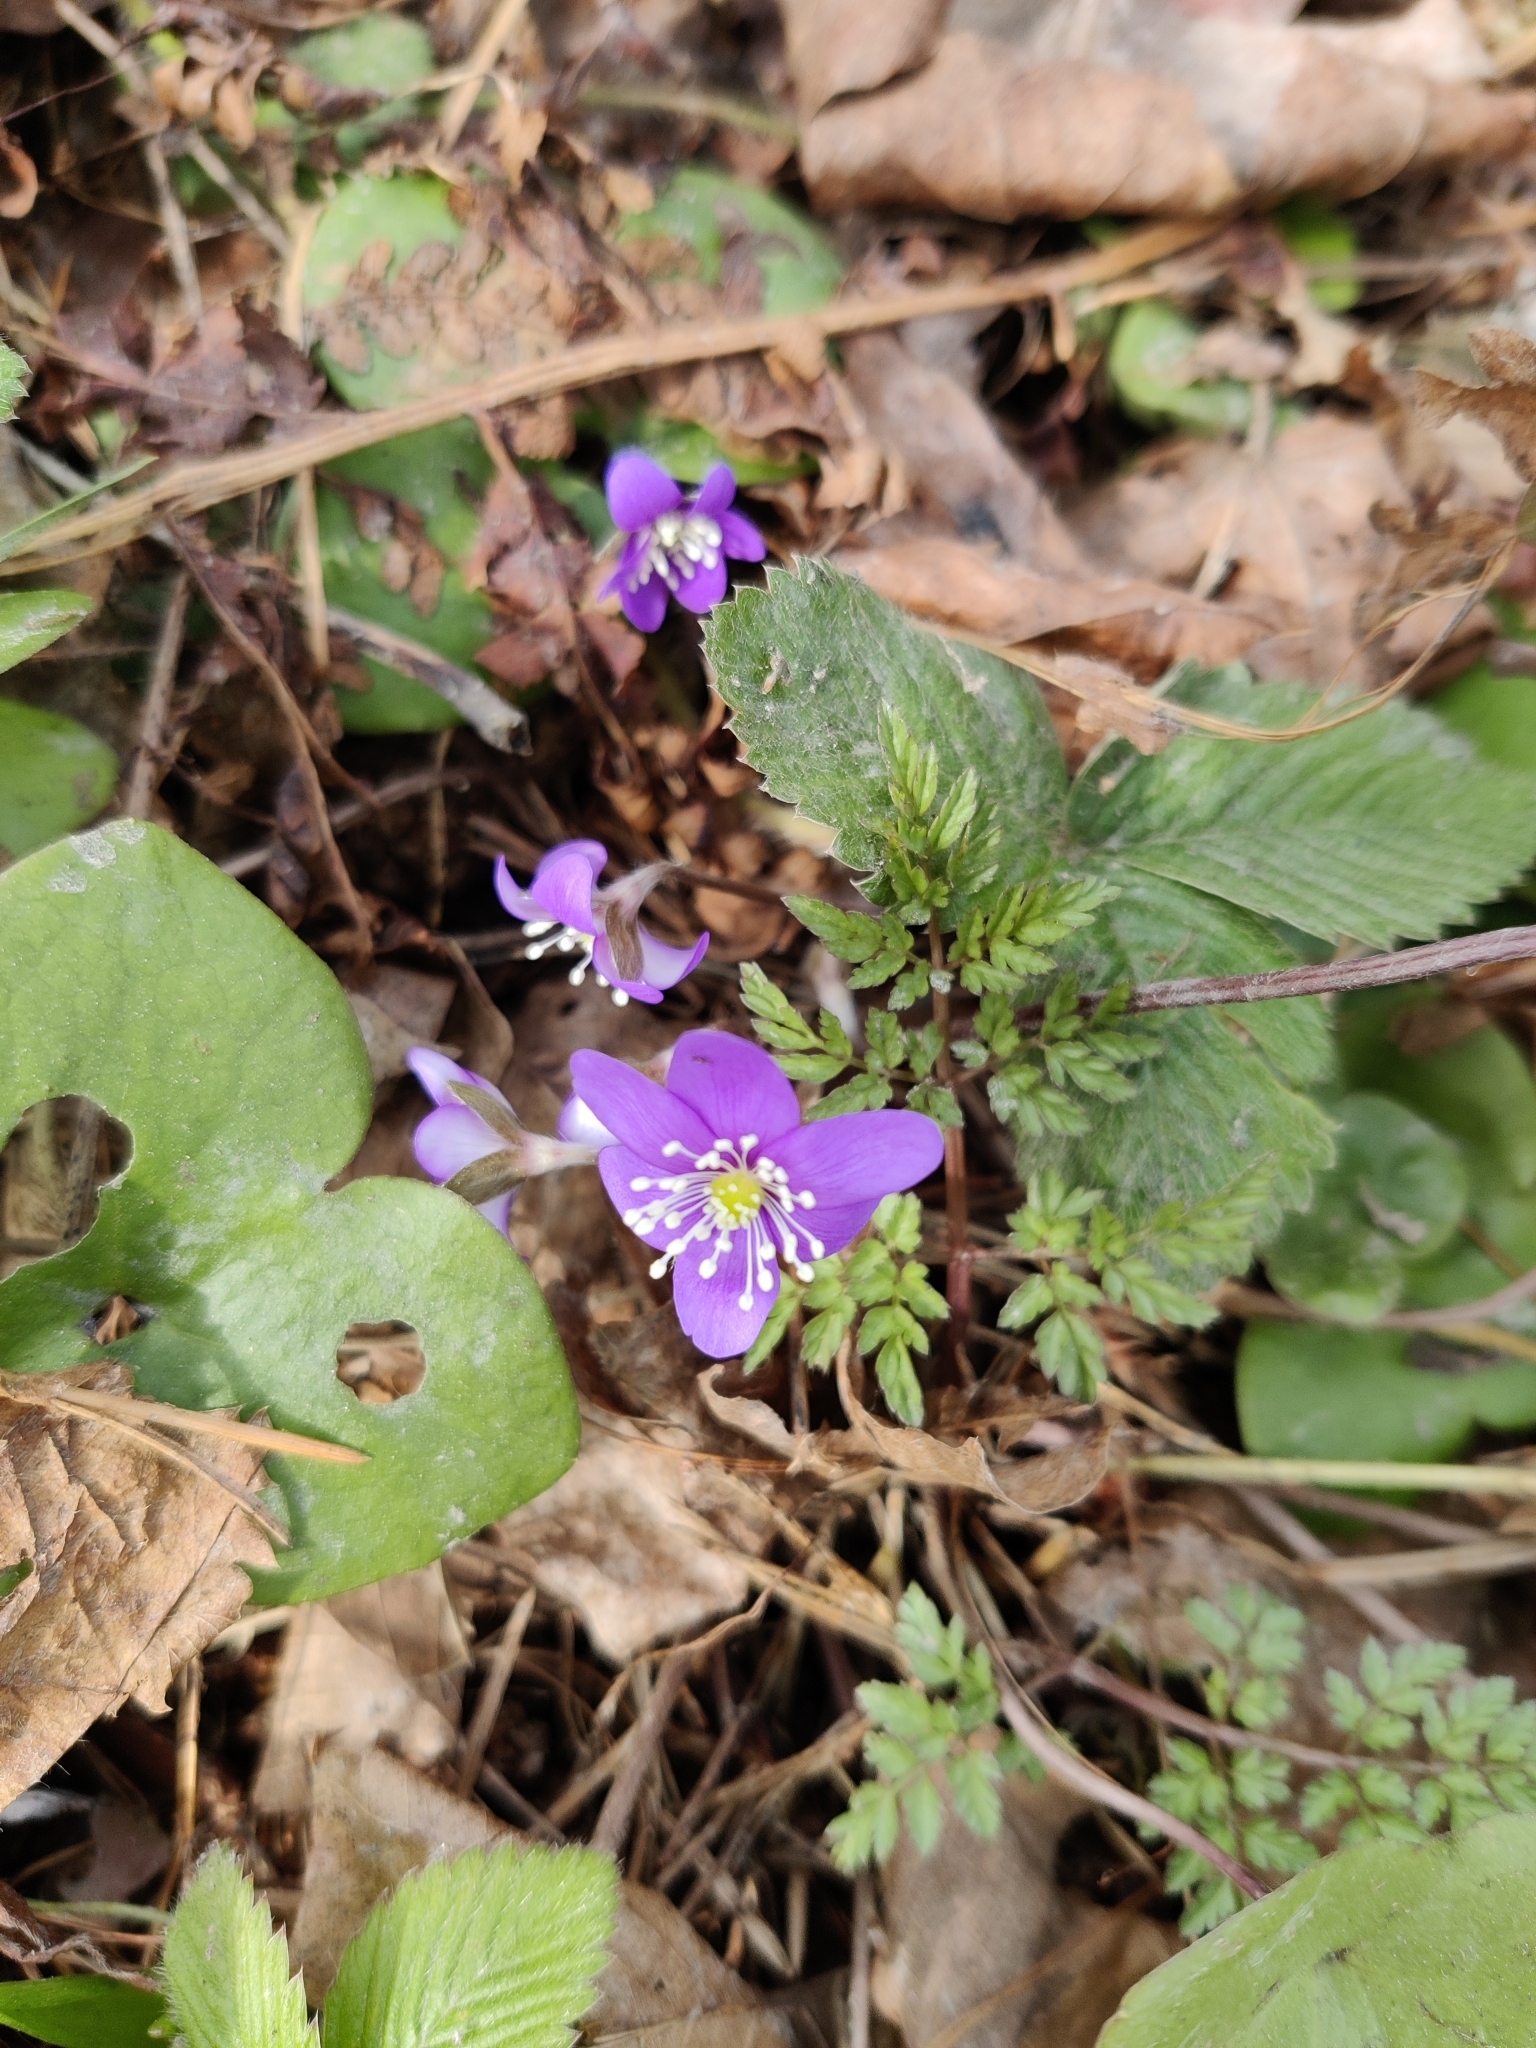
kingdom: Plantae
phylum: Tracheophyta
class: Magnoliopsida
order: Ranunculales
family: Ranunculaceae
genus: Hepatica
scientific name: Hepatica nobilis
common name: Liverleaf
